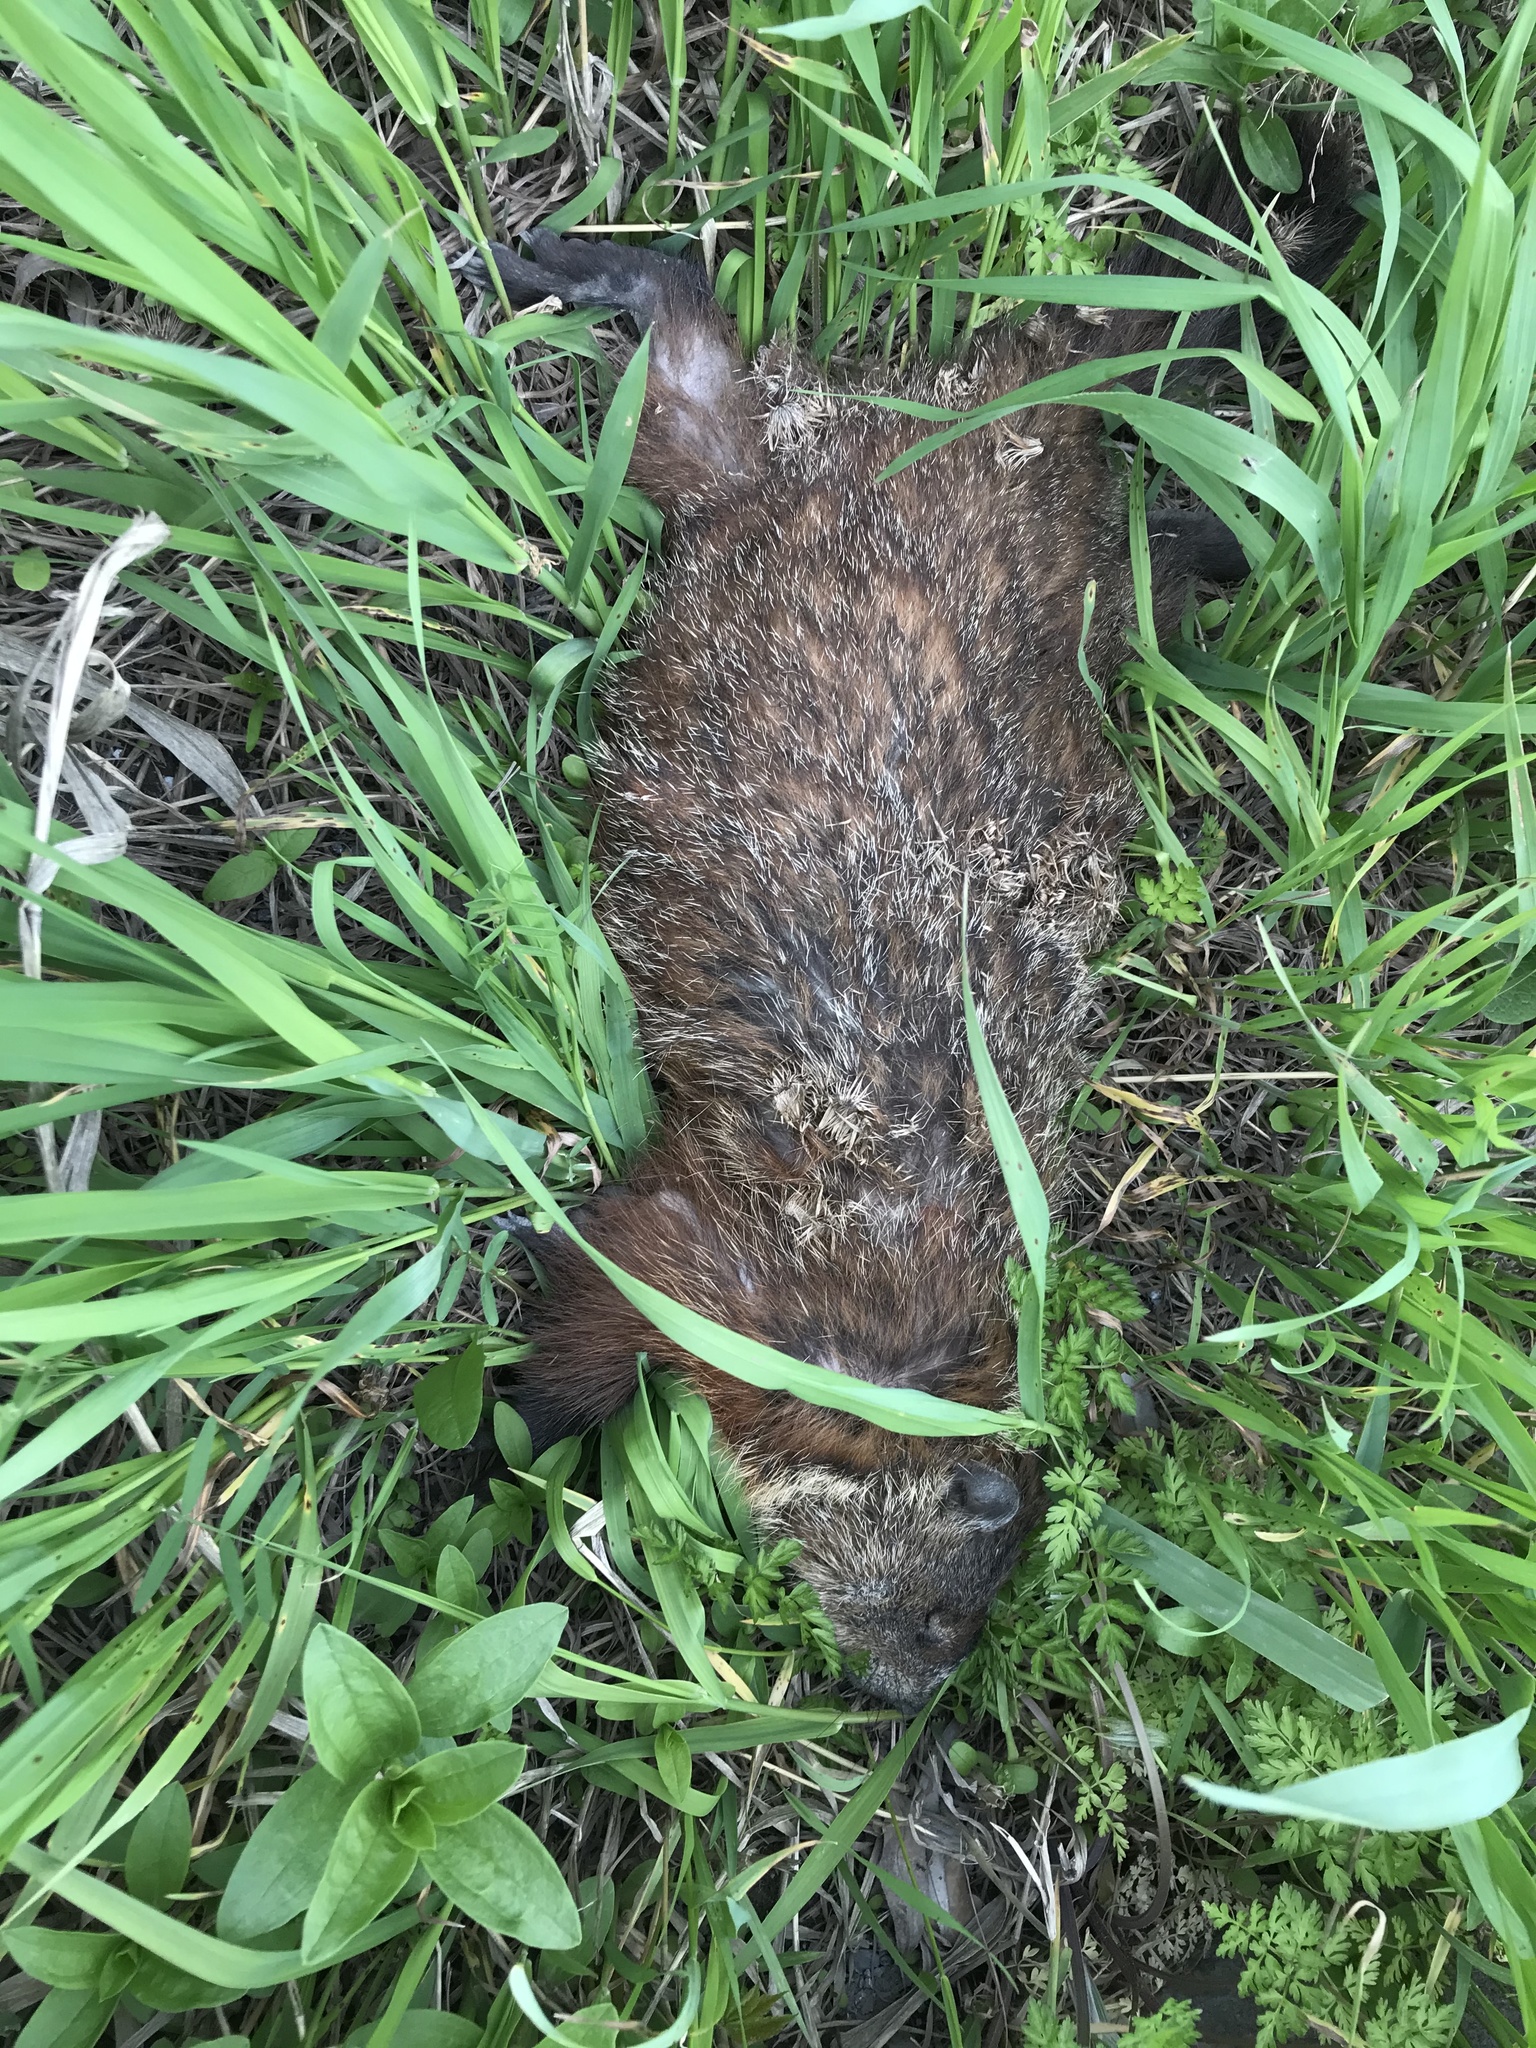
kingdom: Animalia
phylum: Chordata
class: Mammalia
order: Rodentia
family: Sciuridae
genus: Marmota
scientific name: Marmota monax
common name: Groundhog
